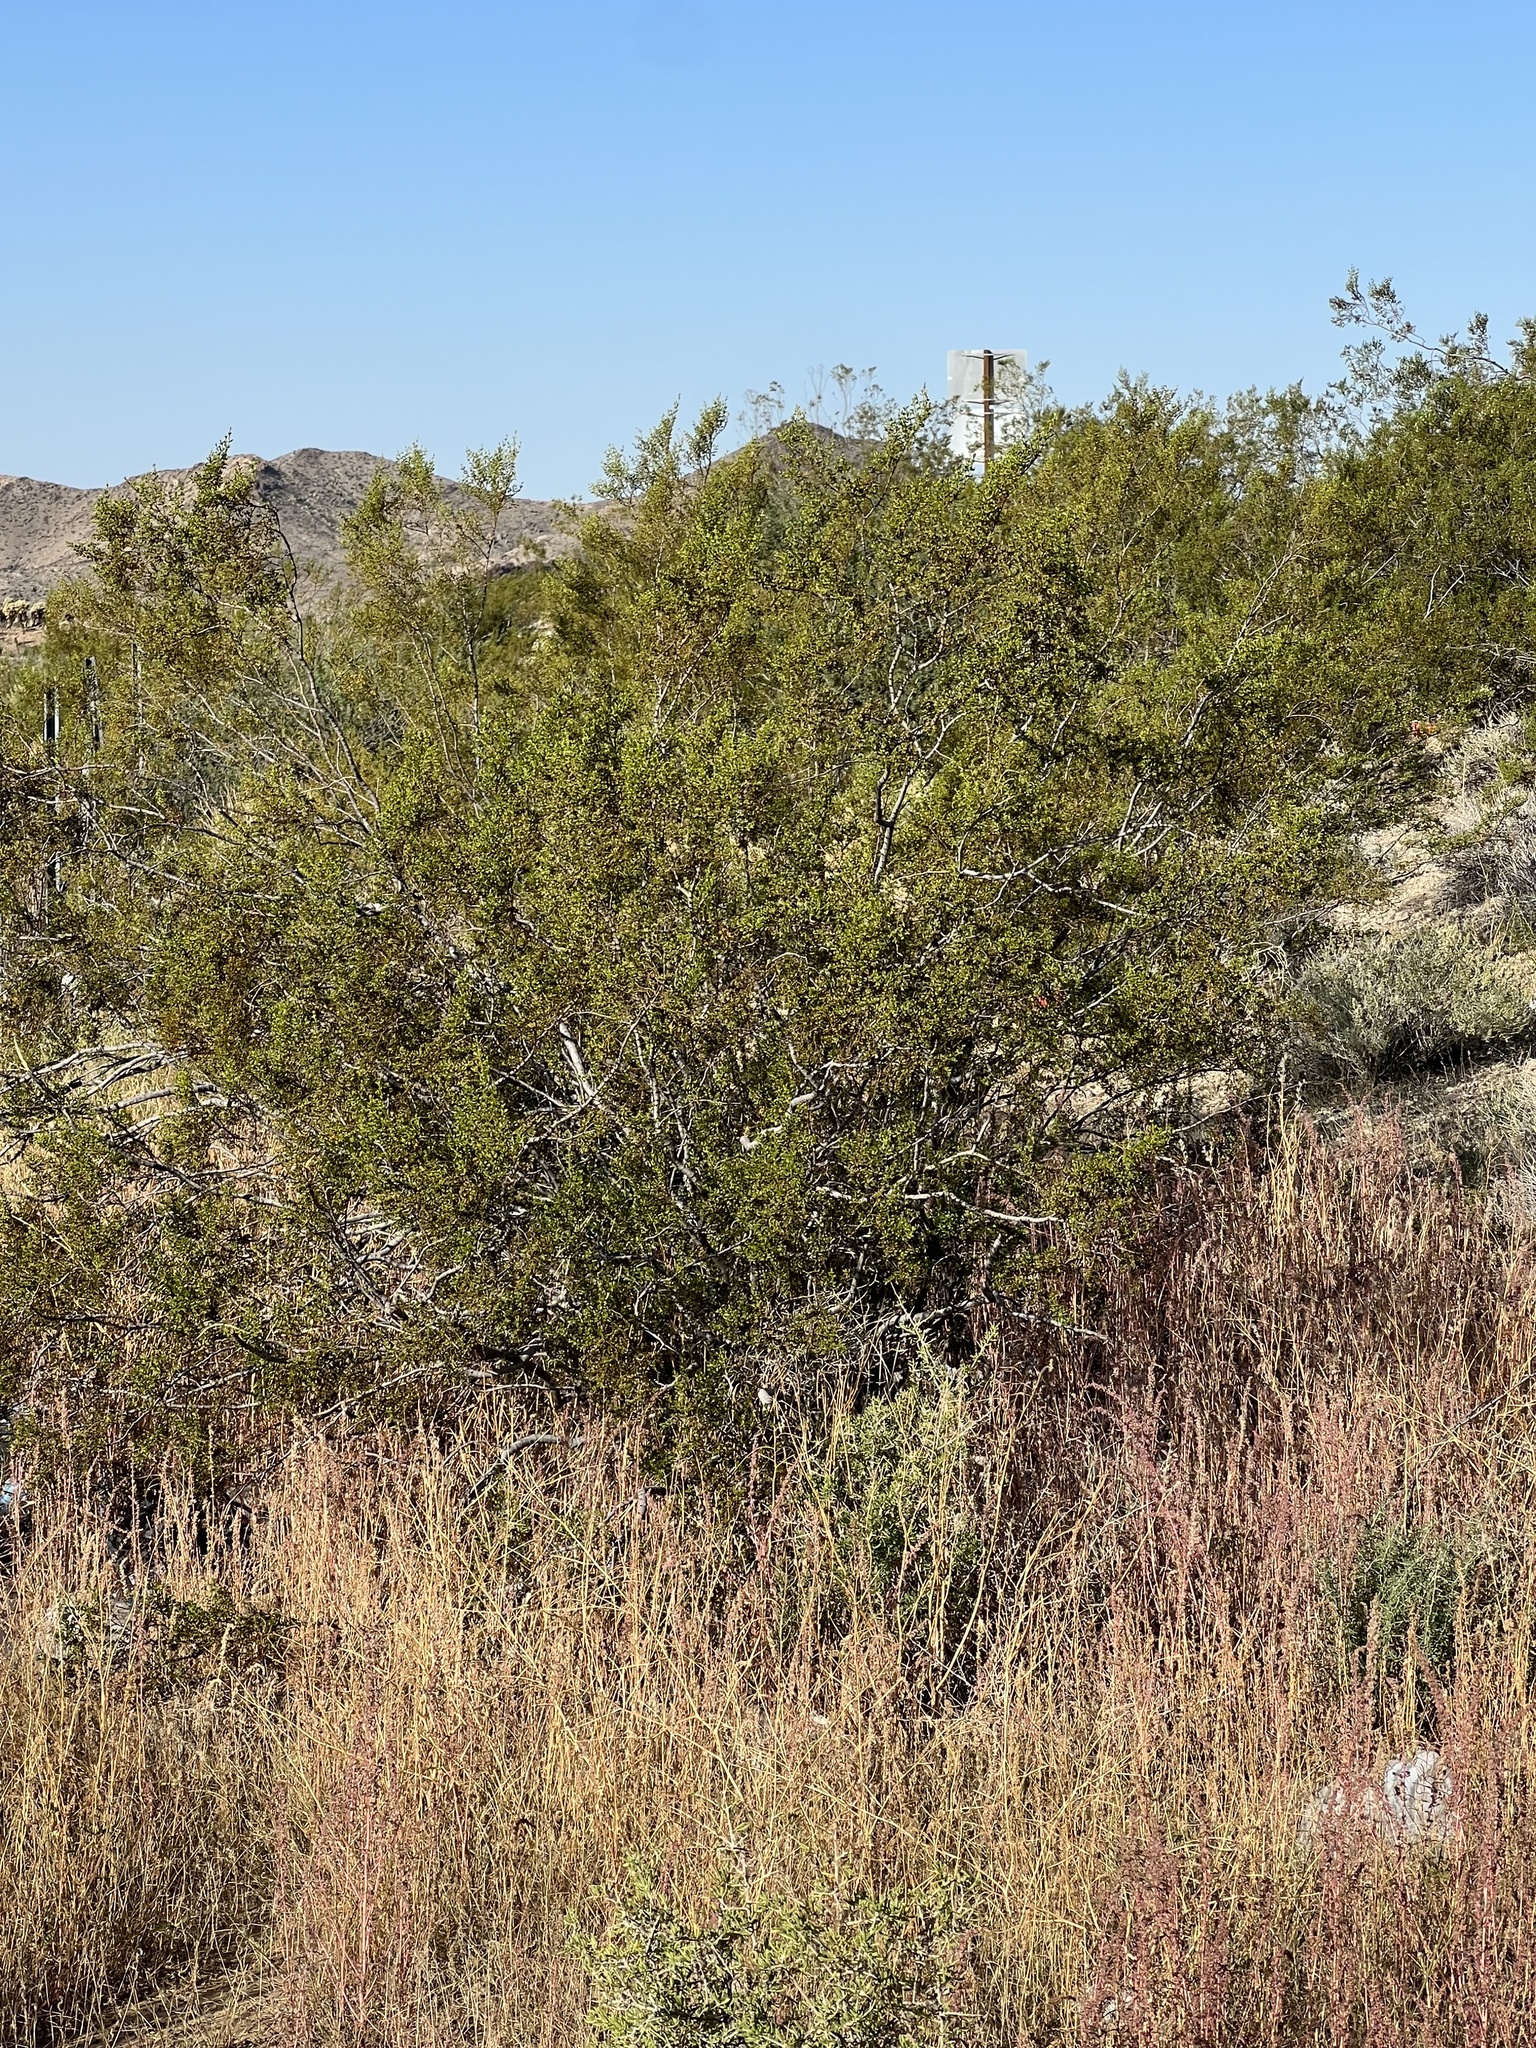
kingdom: Plantae
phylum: Tracheophyta
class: Magnoliopsida
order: Zygophyllales
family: Zygophyllaceae
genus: Larrea
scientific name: Larrea tridentata
